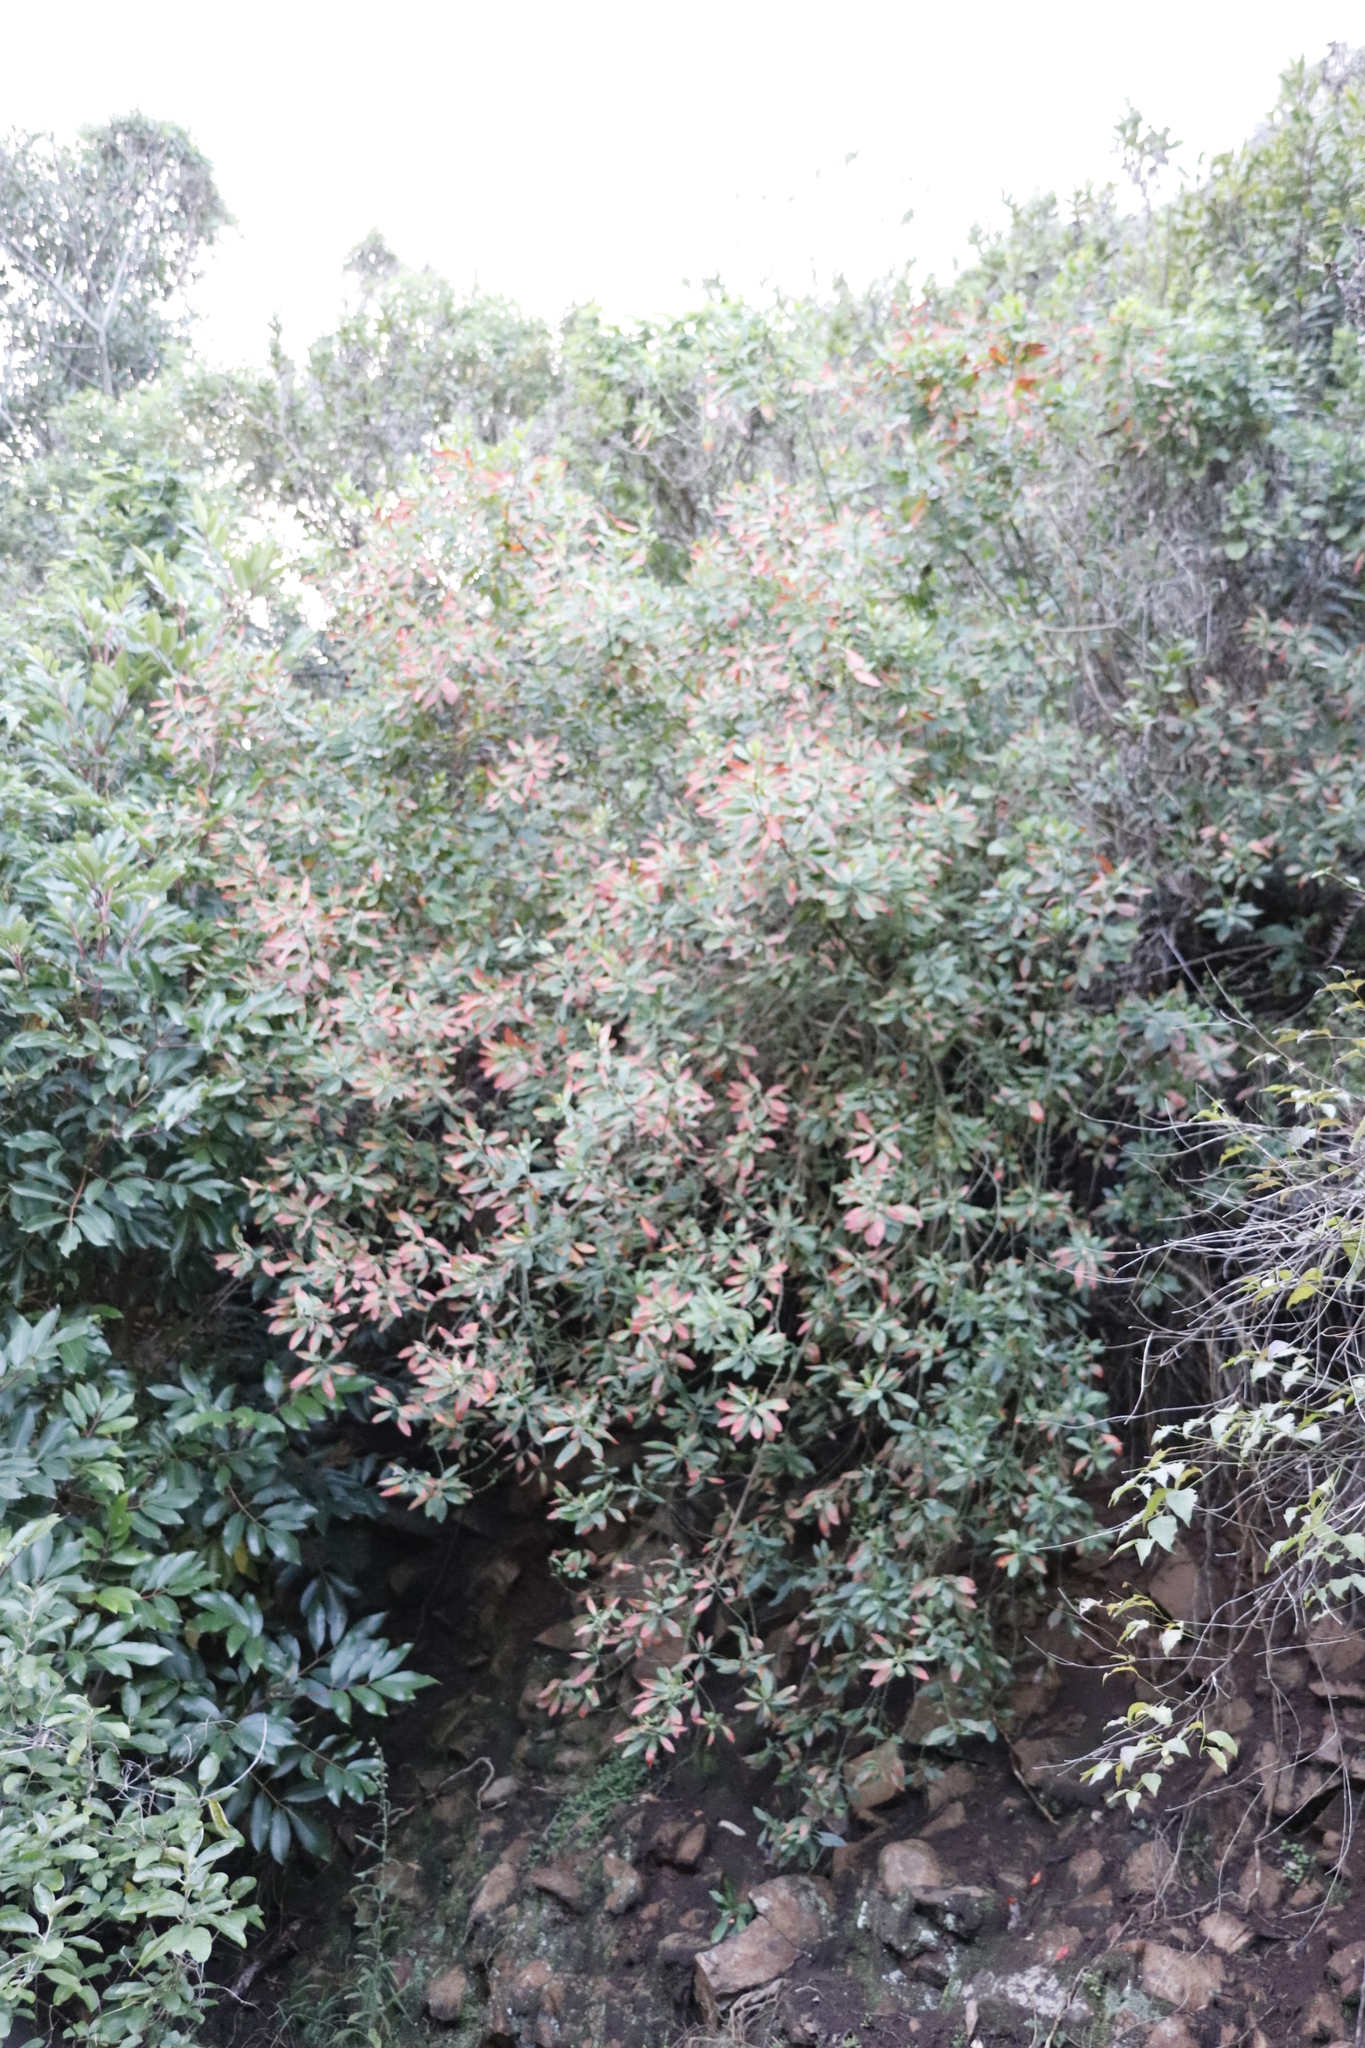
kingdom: Plantae
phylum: Tracheophyta
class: Magnoliopsida
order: Malpighiales
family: Peraceae
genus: Clutia
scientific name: Clutia pulchella
